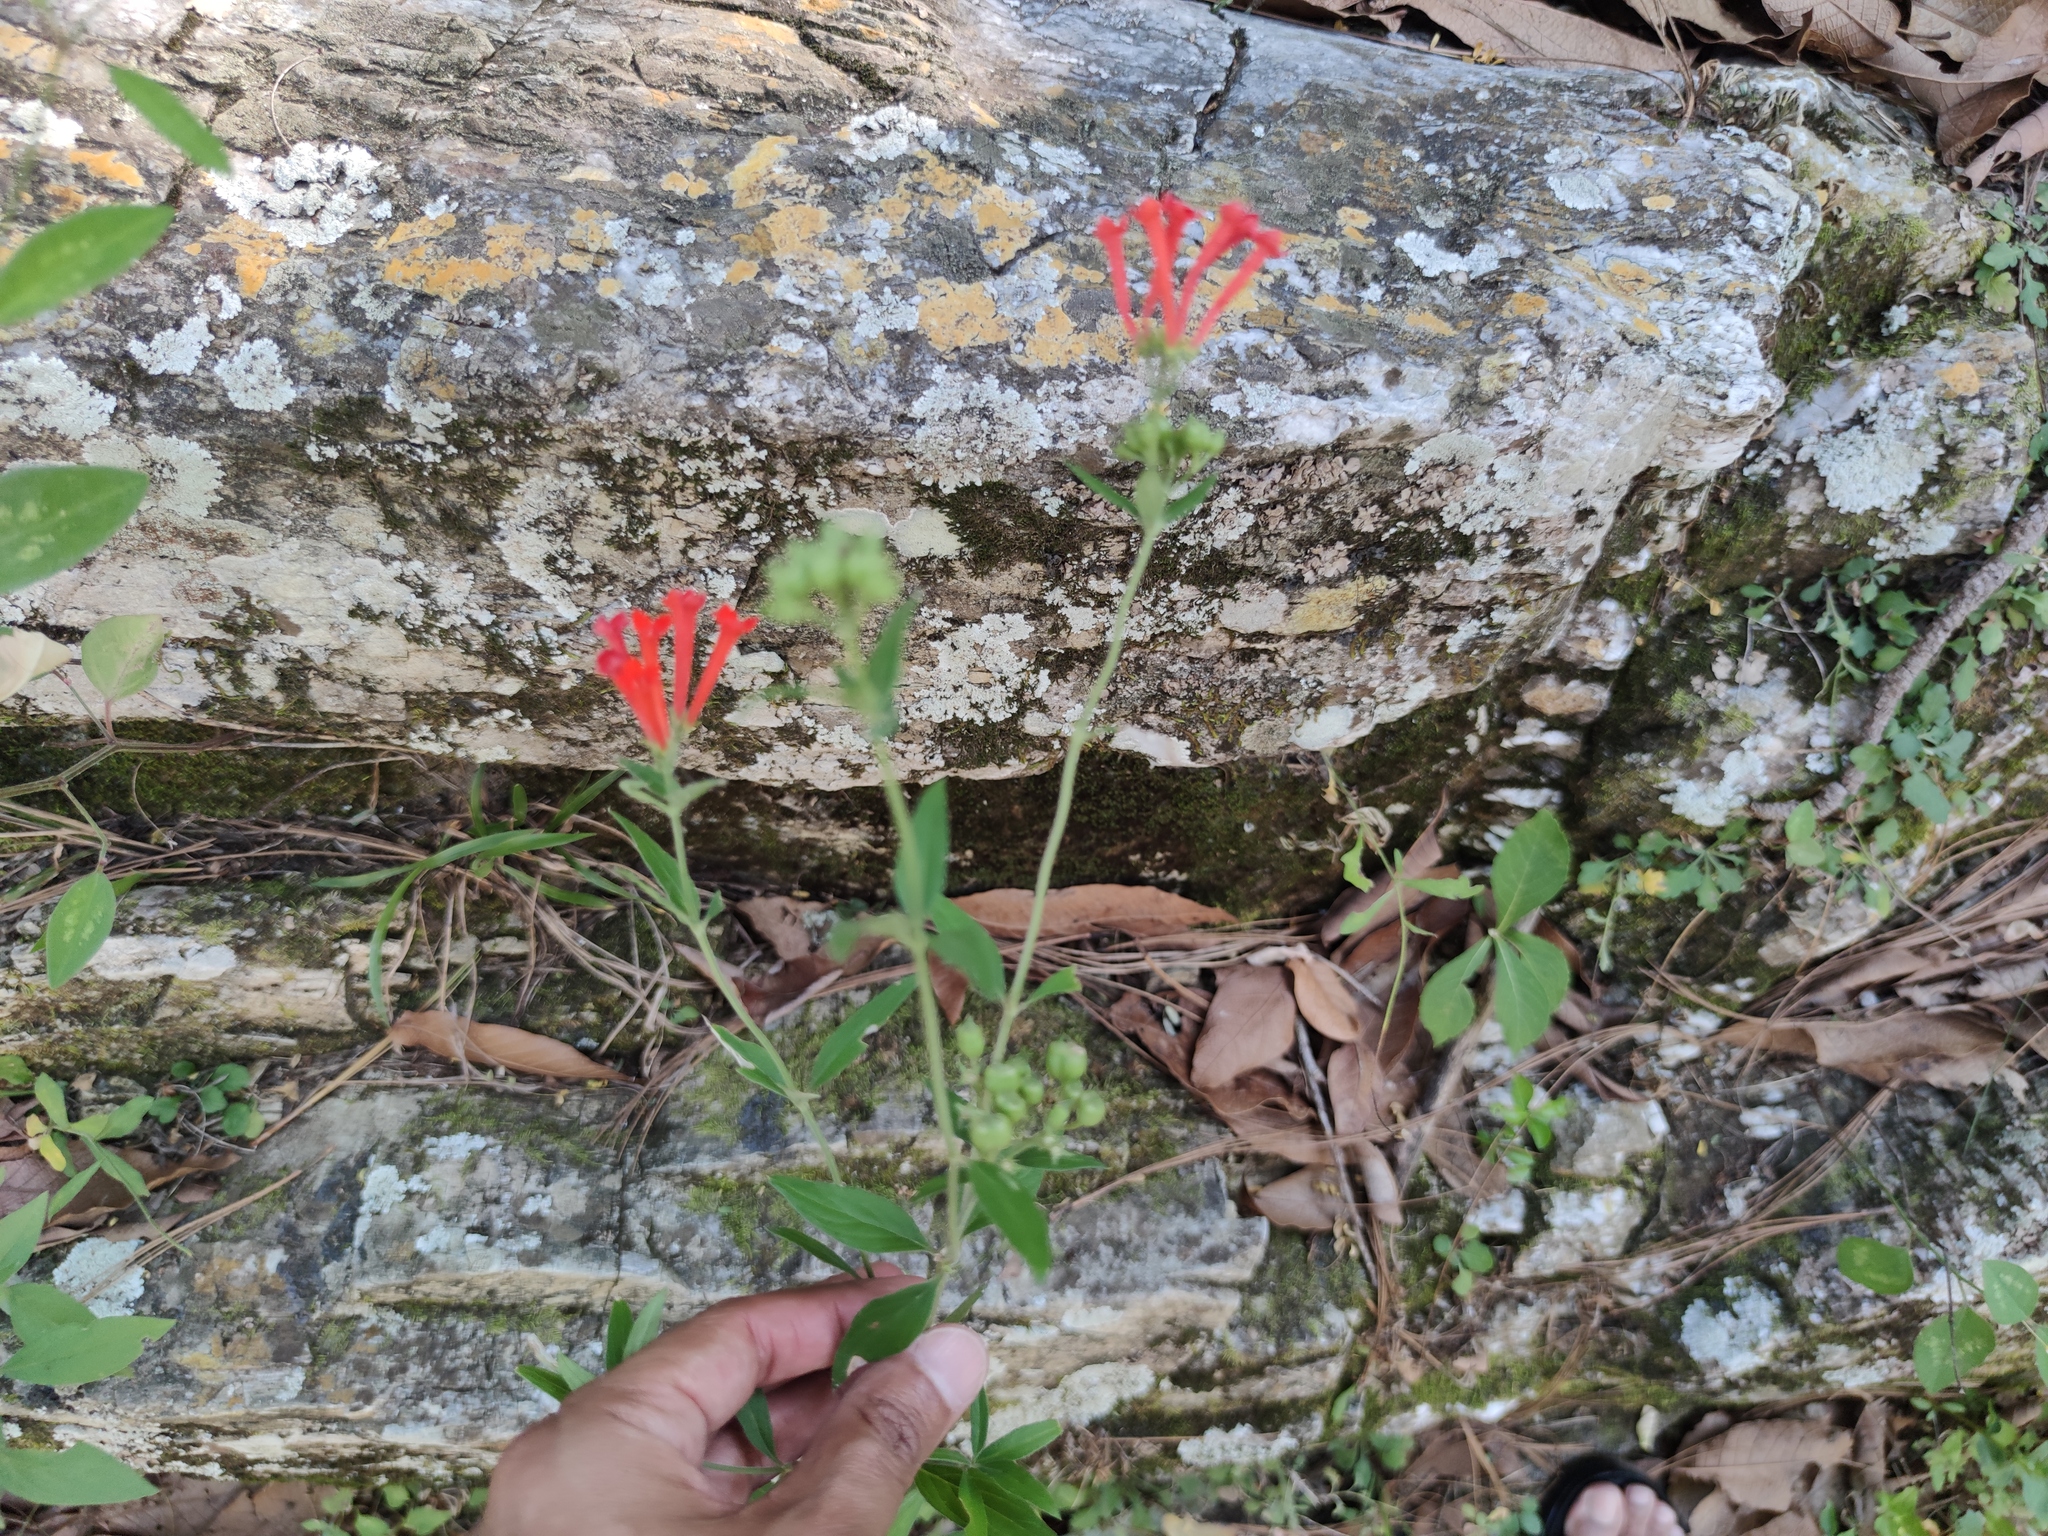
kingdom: Plantae
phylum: Tracheophyta
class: Magnoliopsida
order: Gentianales
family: Rubiaceae
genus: Bouvardia
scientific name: Bouvardia ternifolia
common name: Scarlet bouvardia
